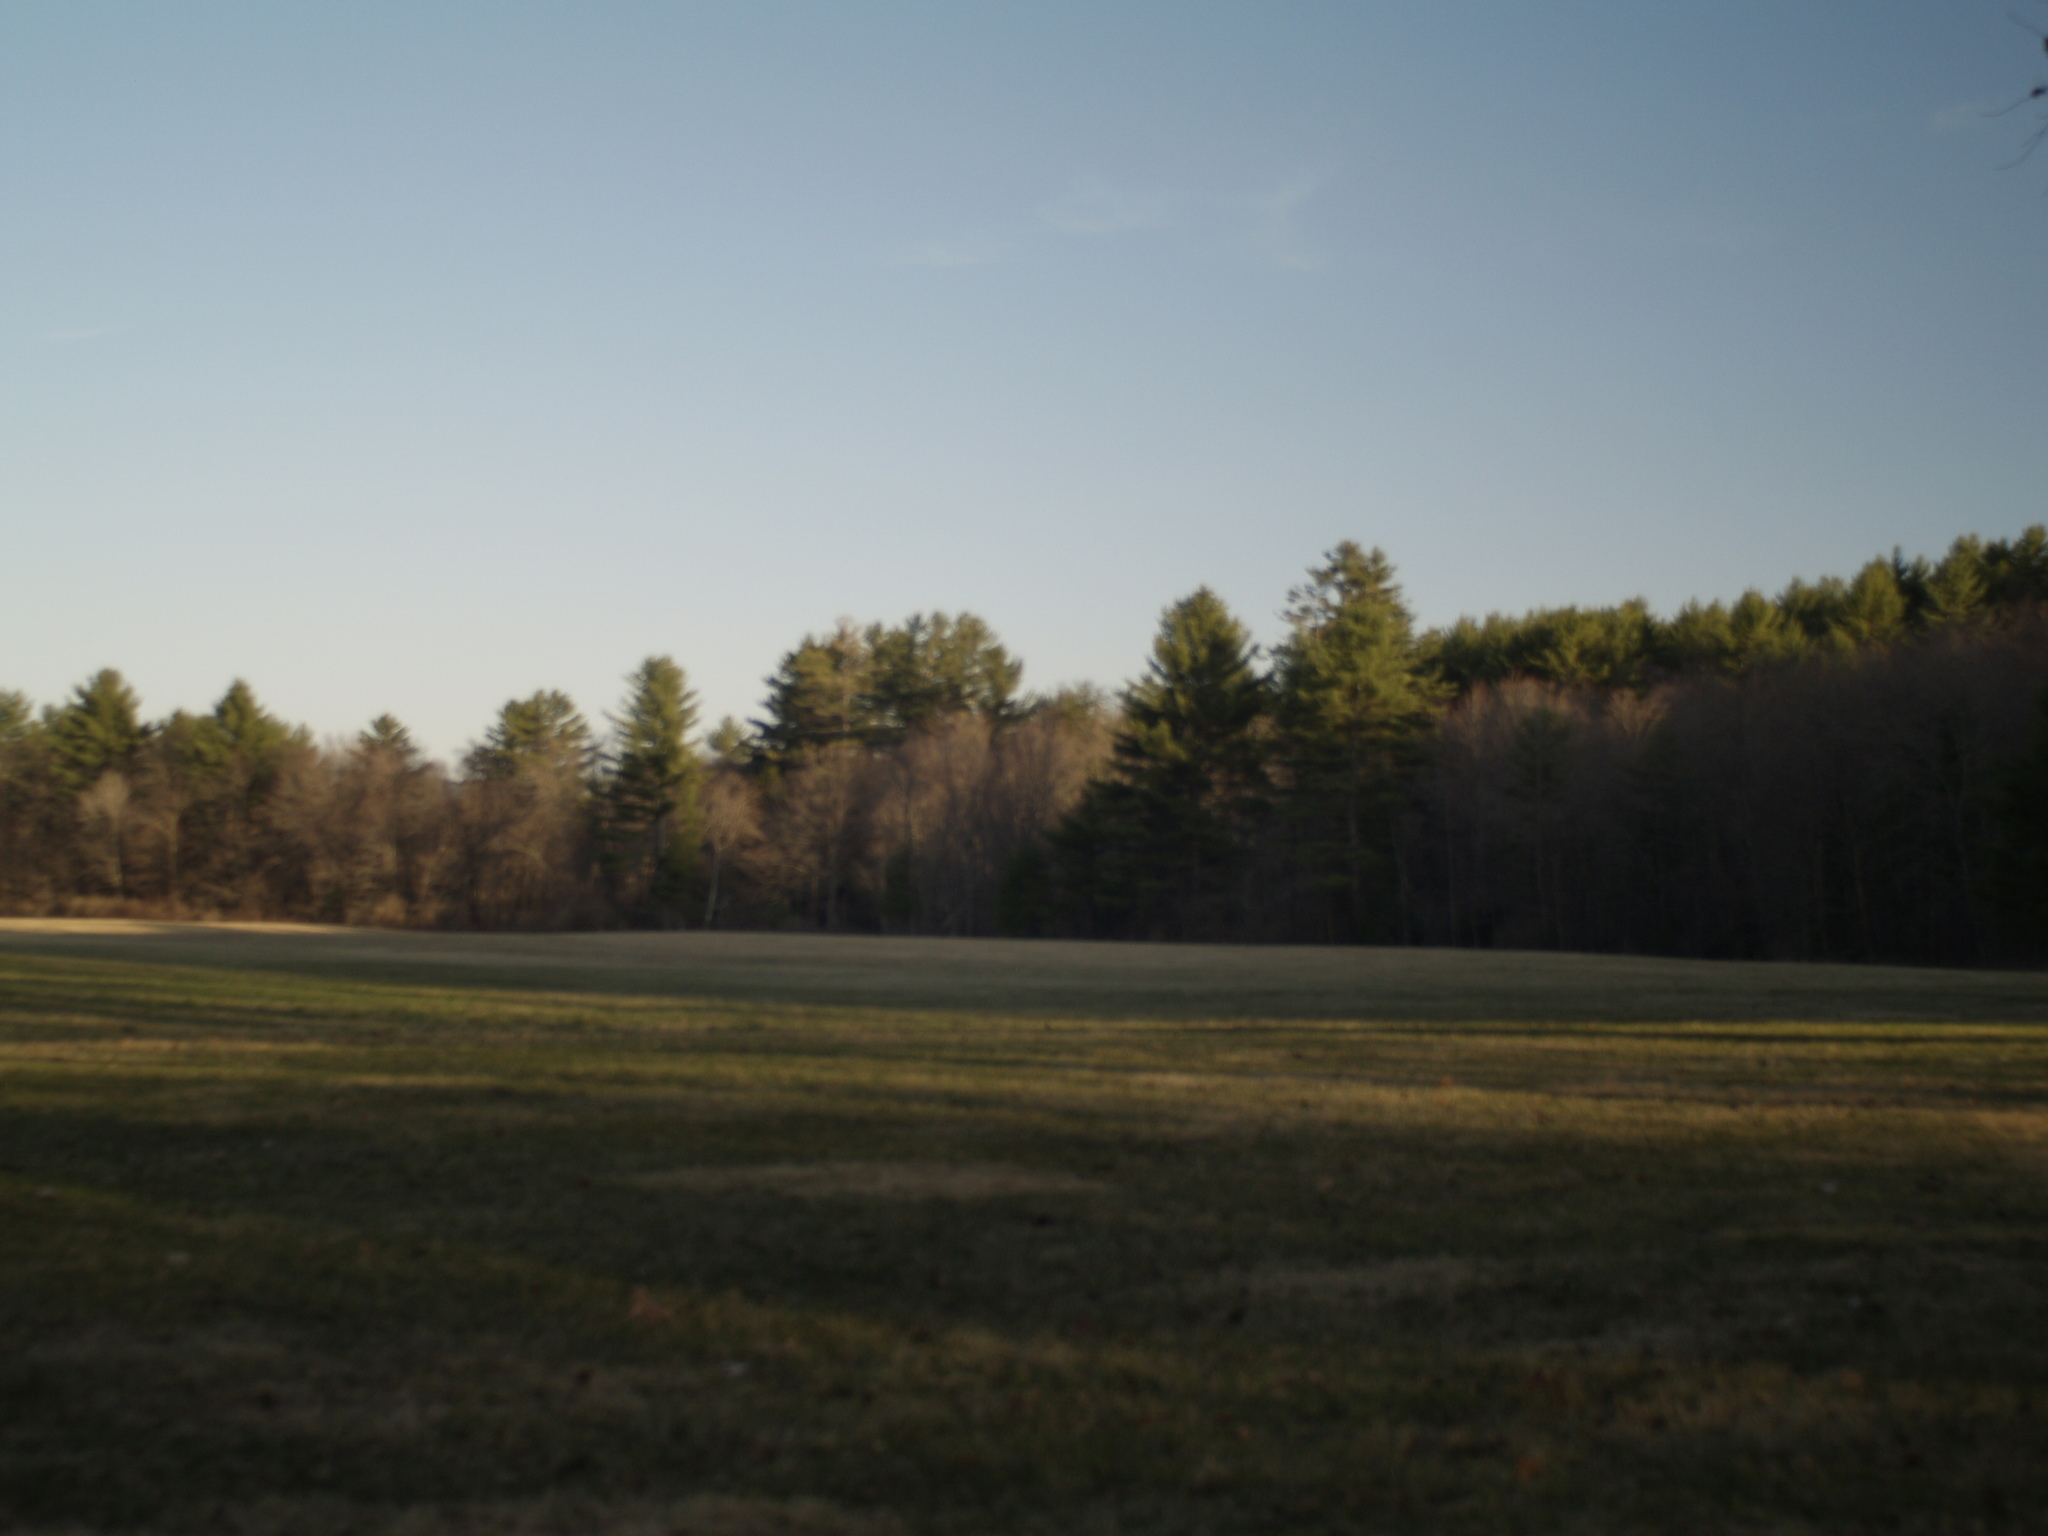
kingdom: Plantae
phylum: Tracheophyta
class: Pinopsida
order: Pinales
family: Pinaceae
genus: Pinus
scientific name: Pinus strobus
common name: Weymouth pine
